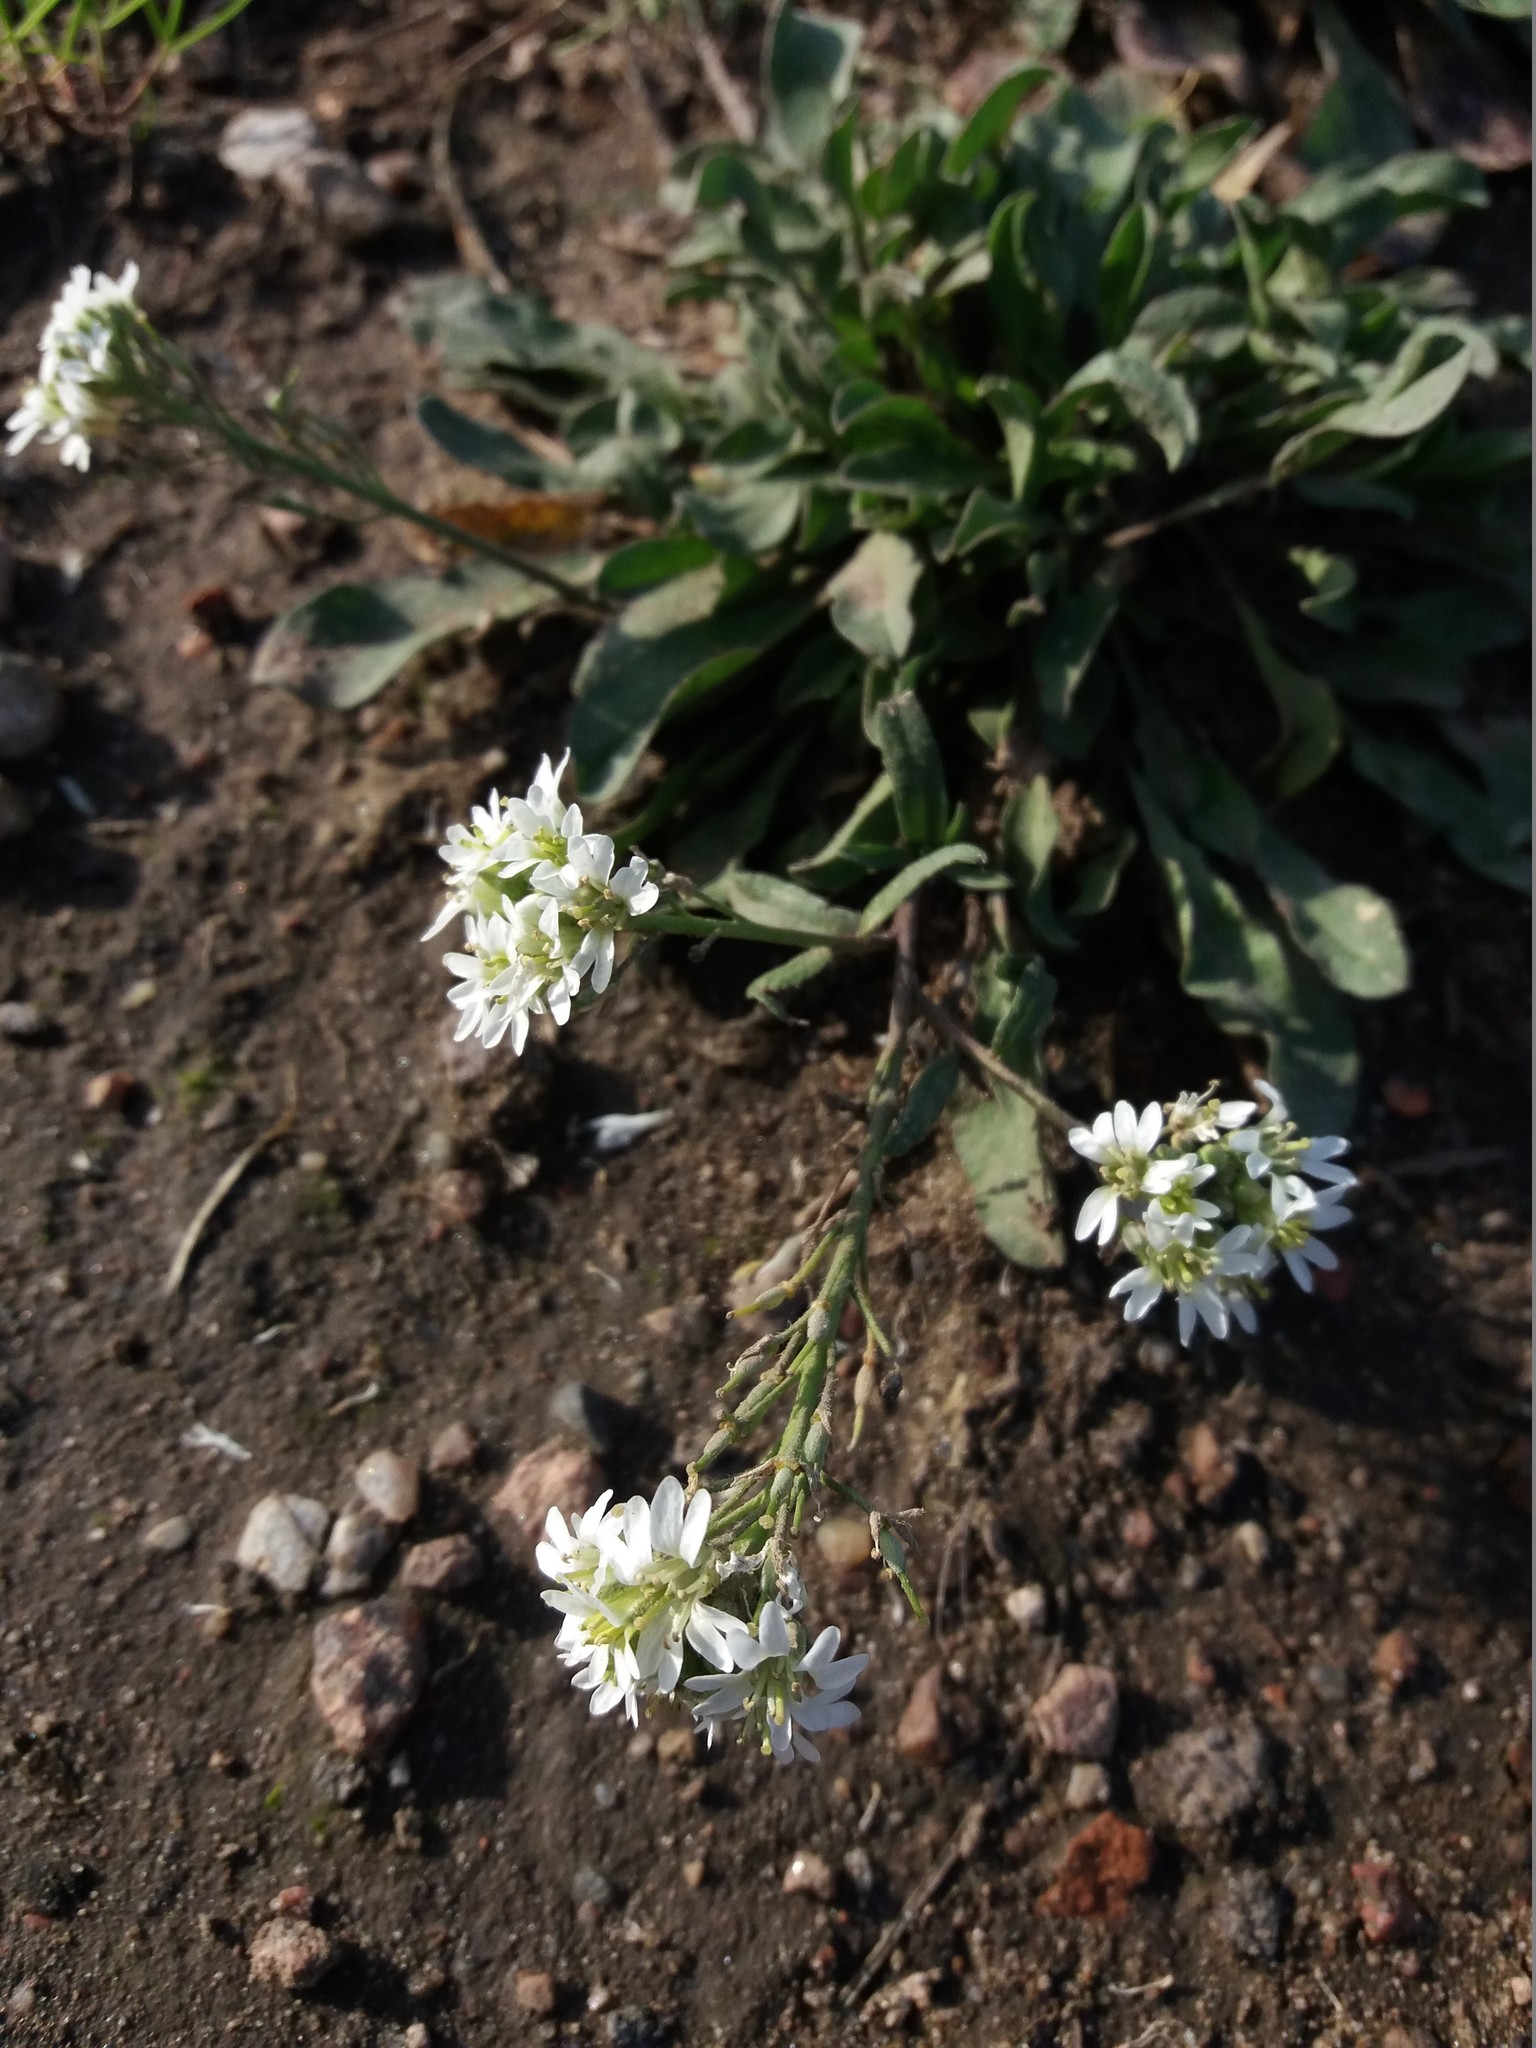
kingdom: Plantae
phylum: Tracheophyta
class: Magnoliopsida
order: Brassicales
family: Brassicaceae
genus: Berteroa
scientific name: Berteroa incana
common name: Hoary alison
